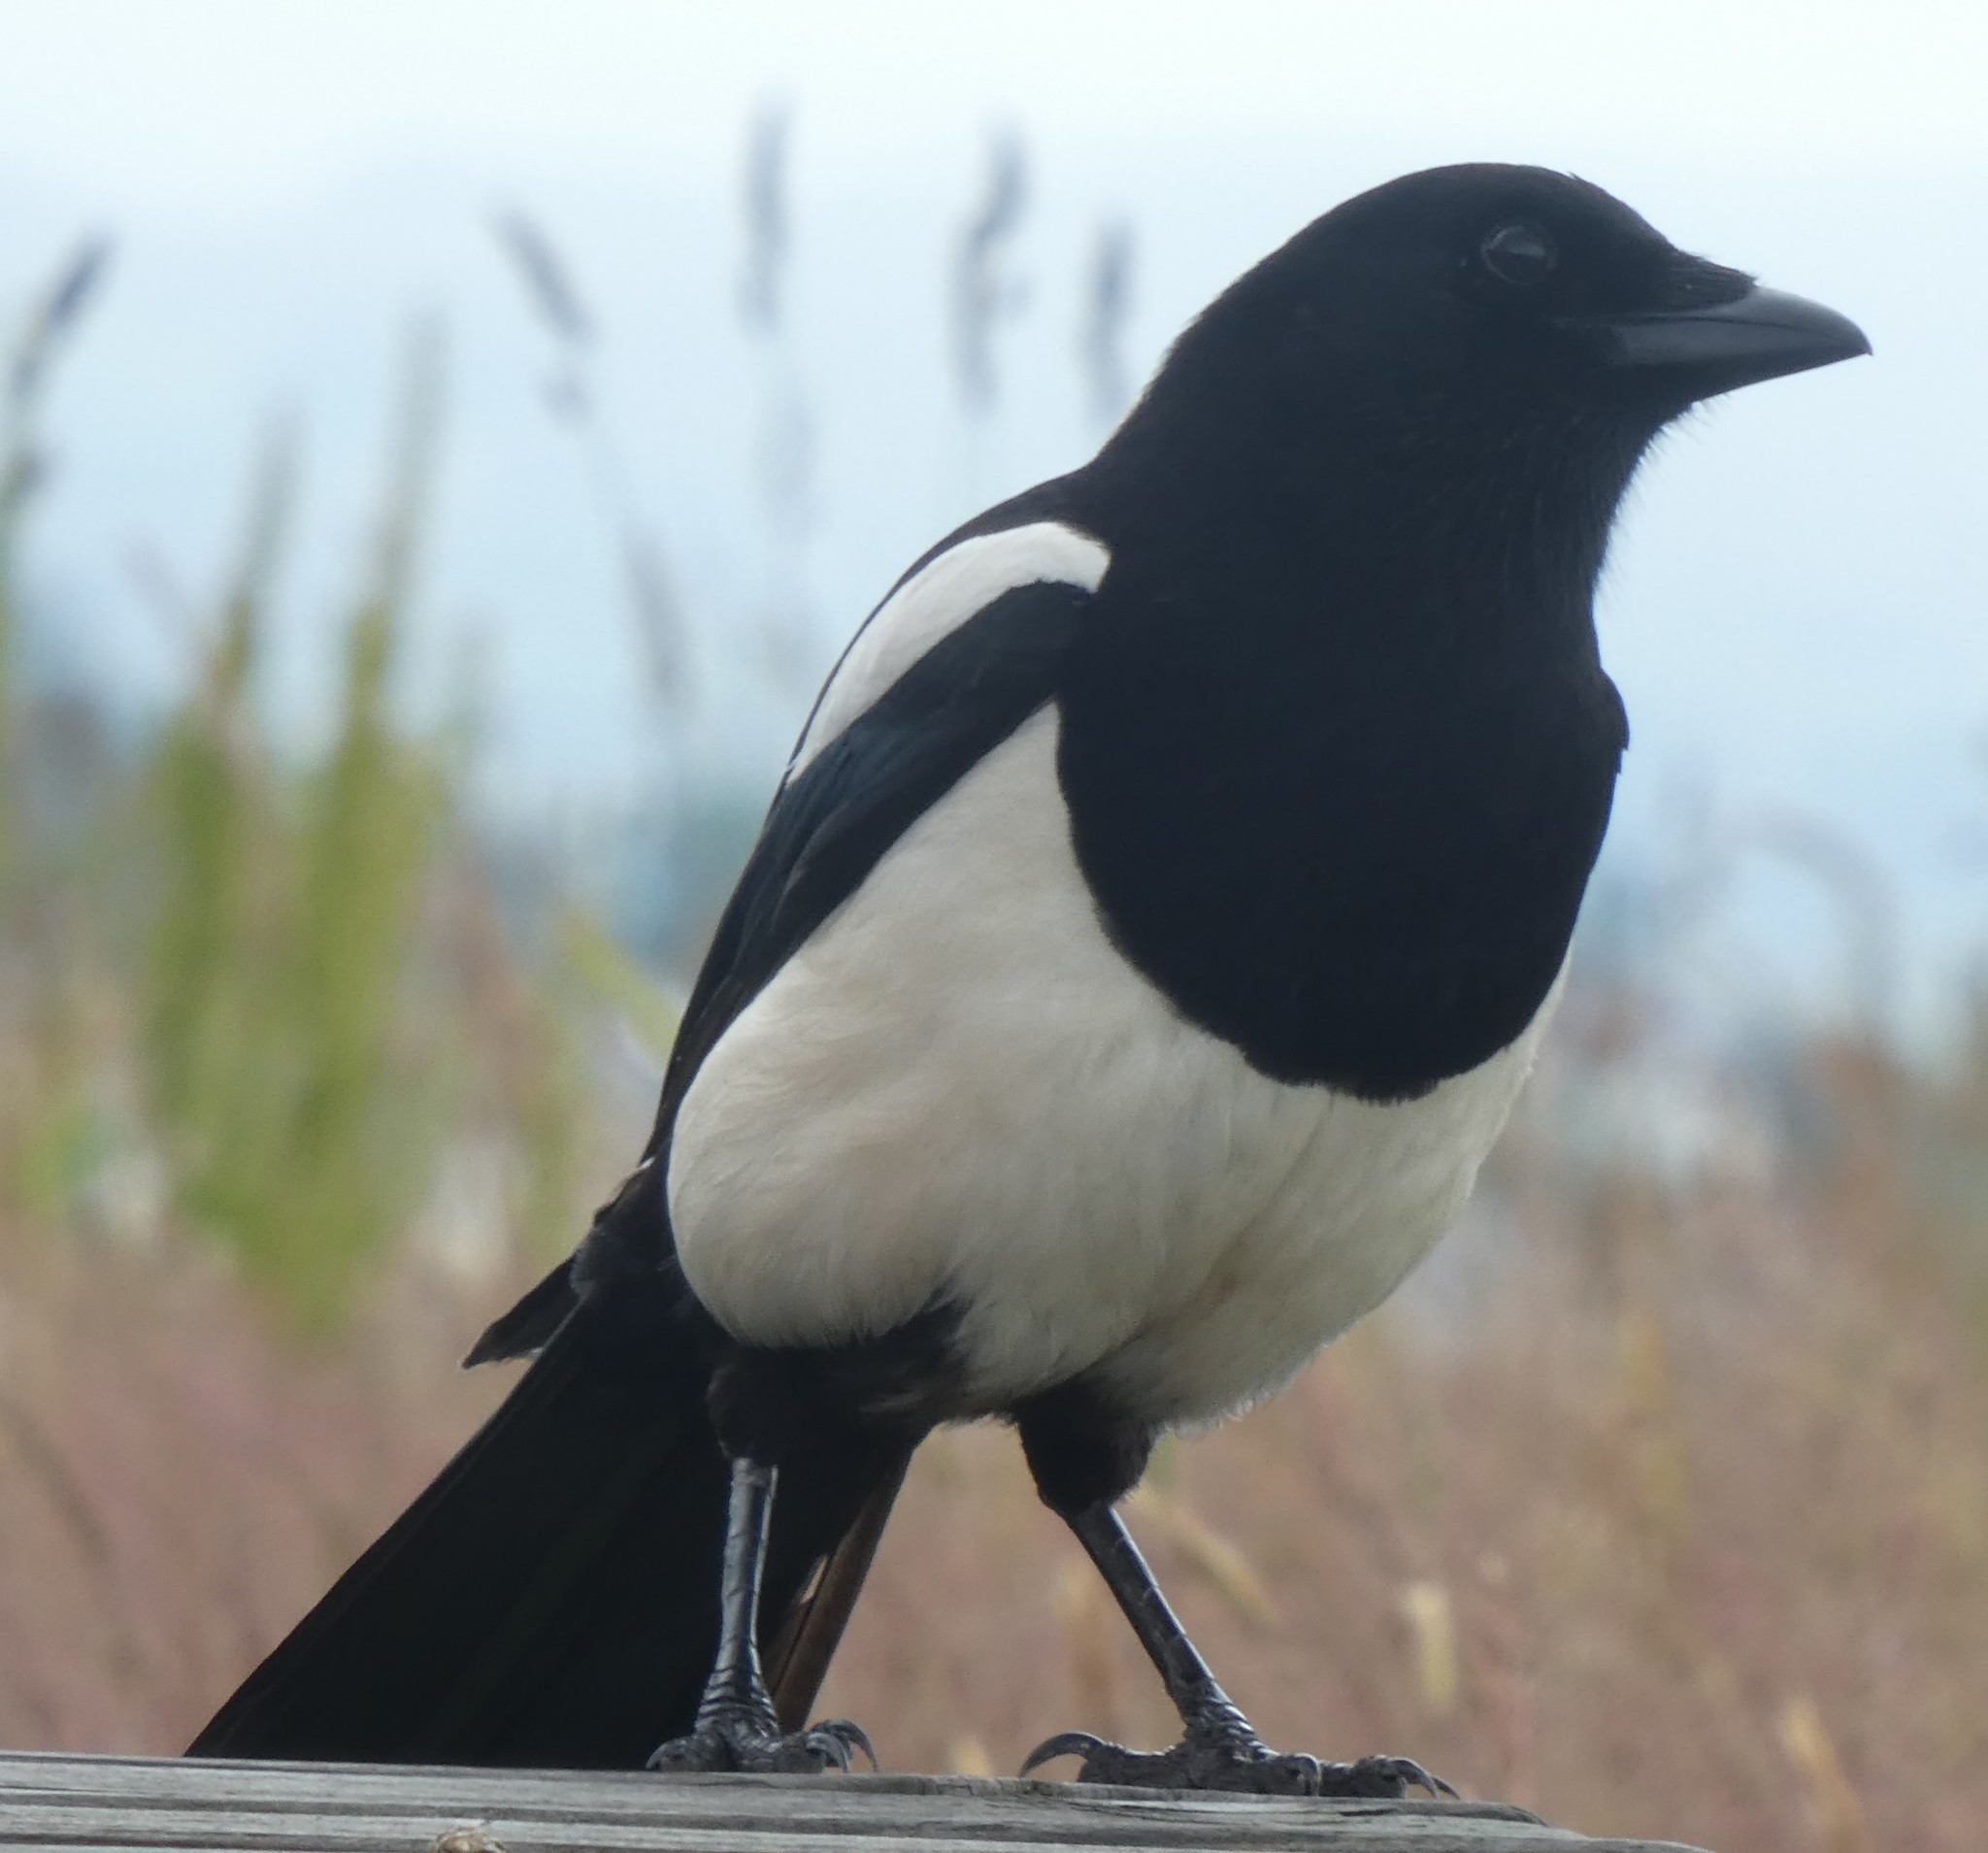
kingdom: Animalia
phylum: Chordata
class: Aves
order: Passeriformes
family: Corvidae
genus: Pica
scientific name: Pica pica
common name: Eurasian magpie
